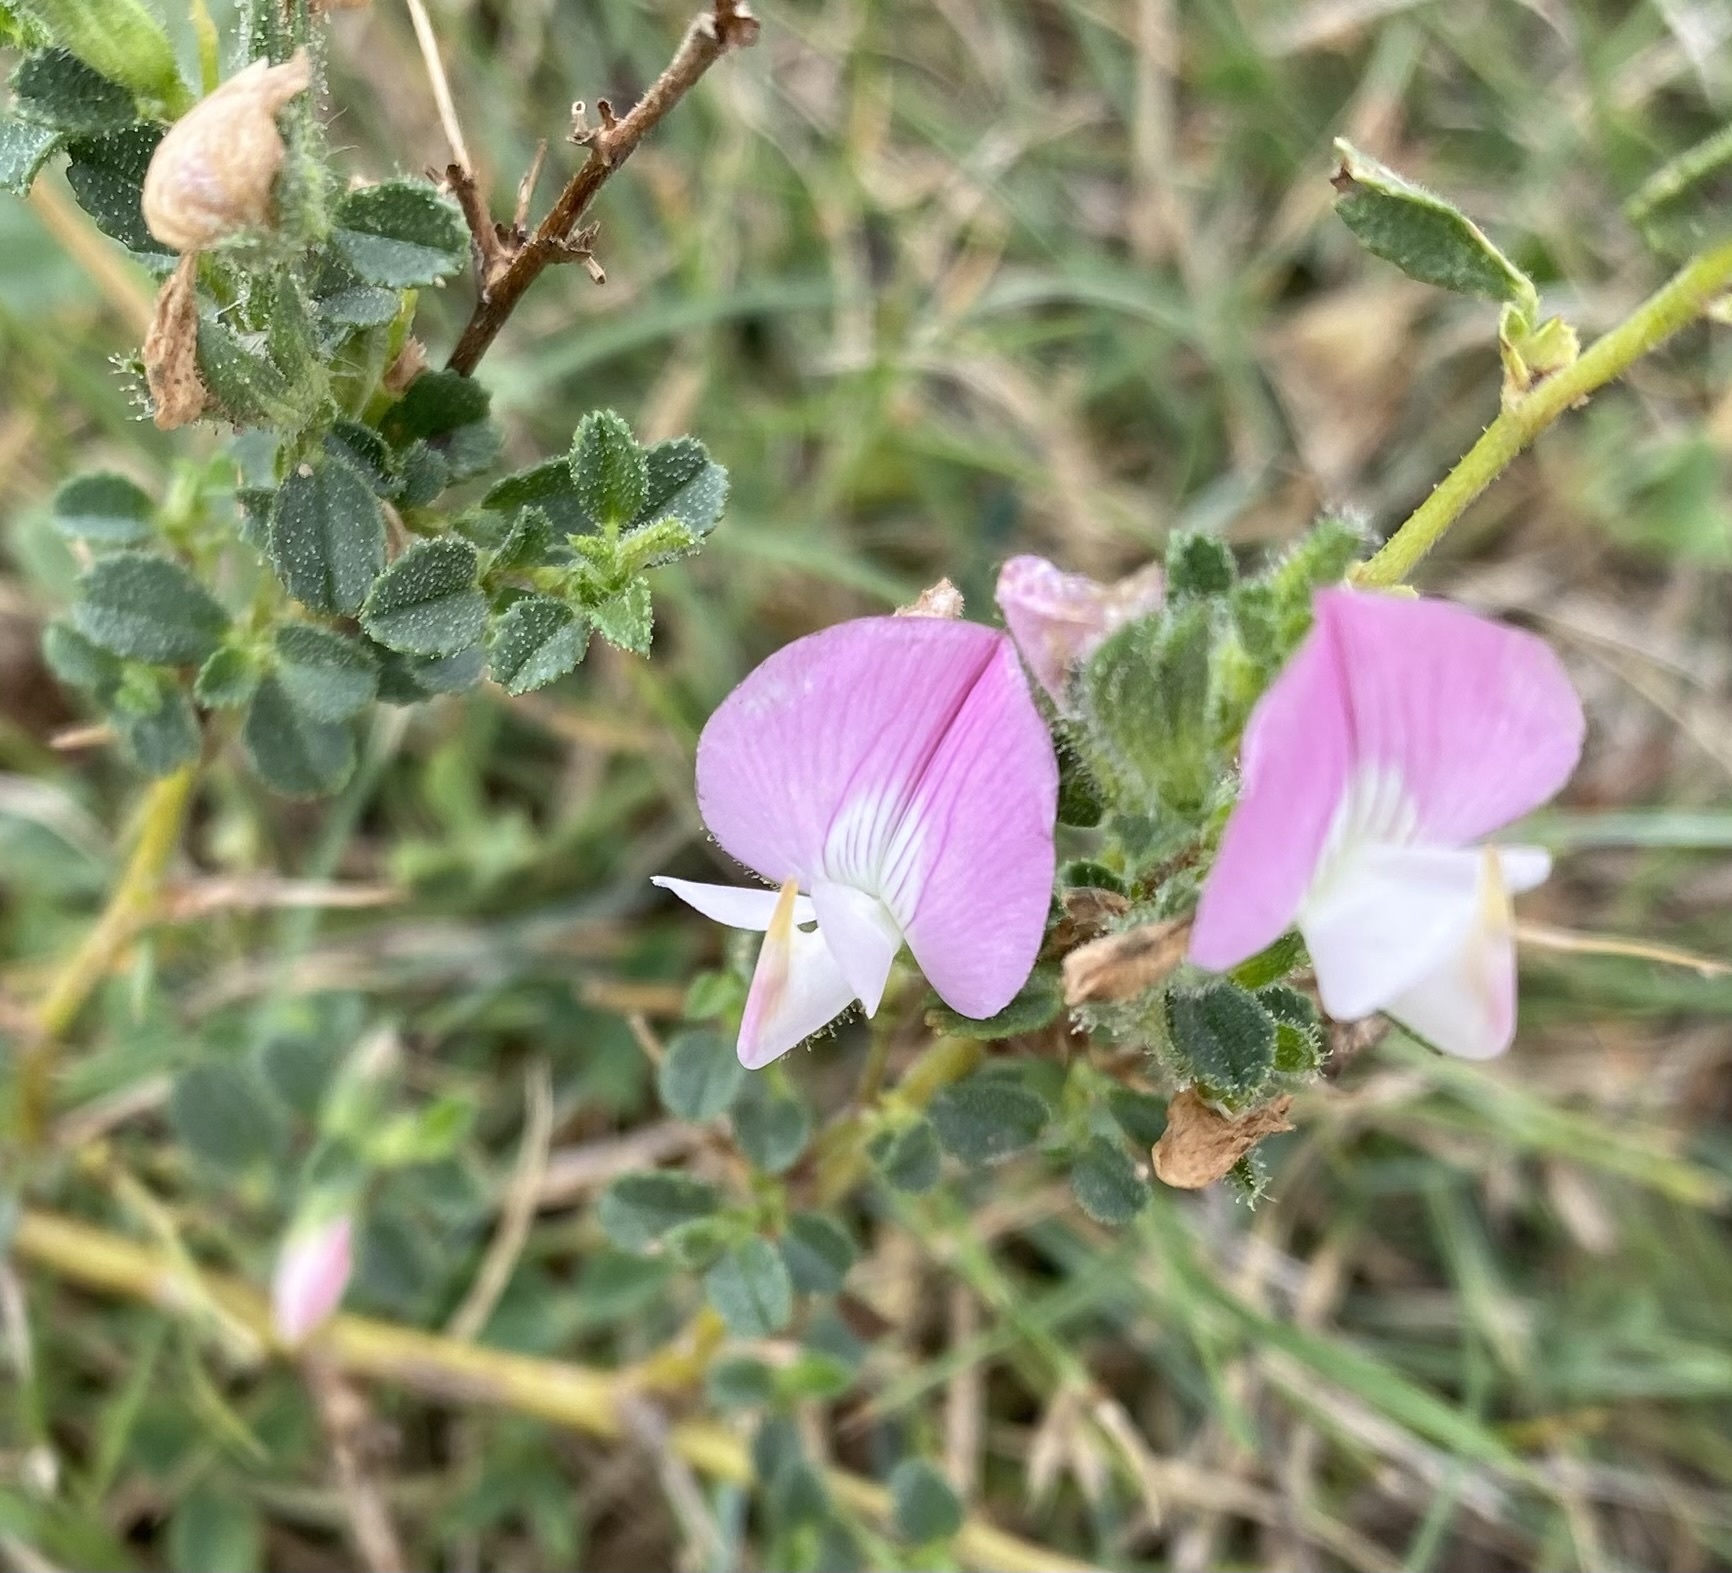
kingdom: Plantae
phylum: Tracheophyta
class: Magnoliopsida
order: Fabales
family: Fabaceae
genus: Ononis
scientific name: Ononis spinosa
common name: Spiny restharrow
